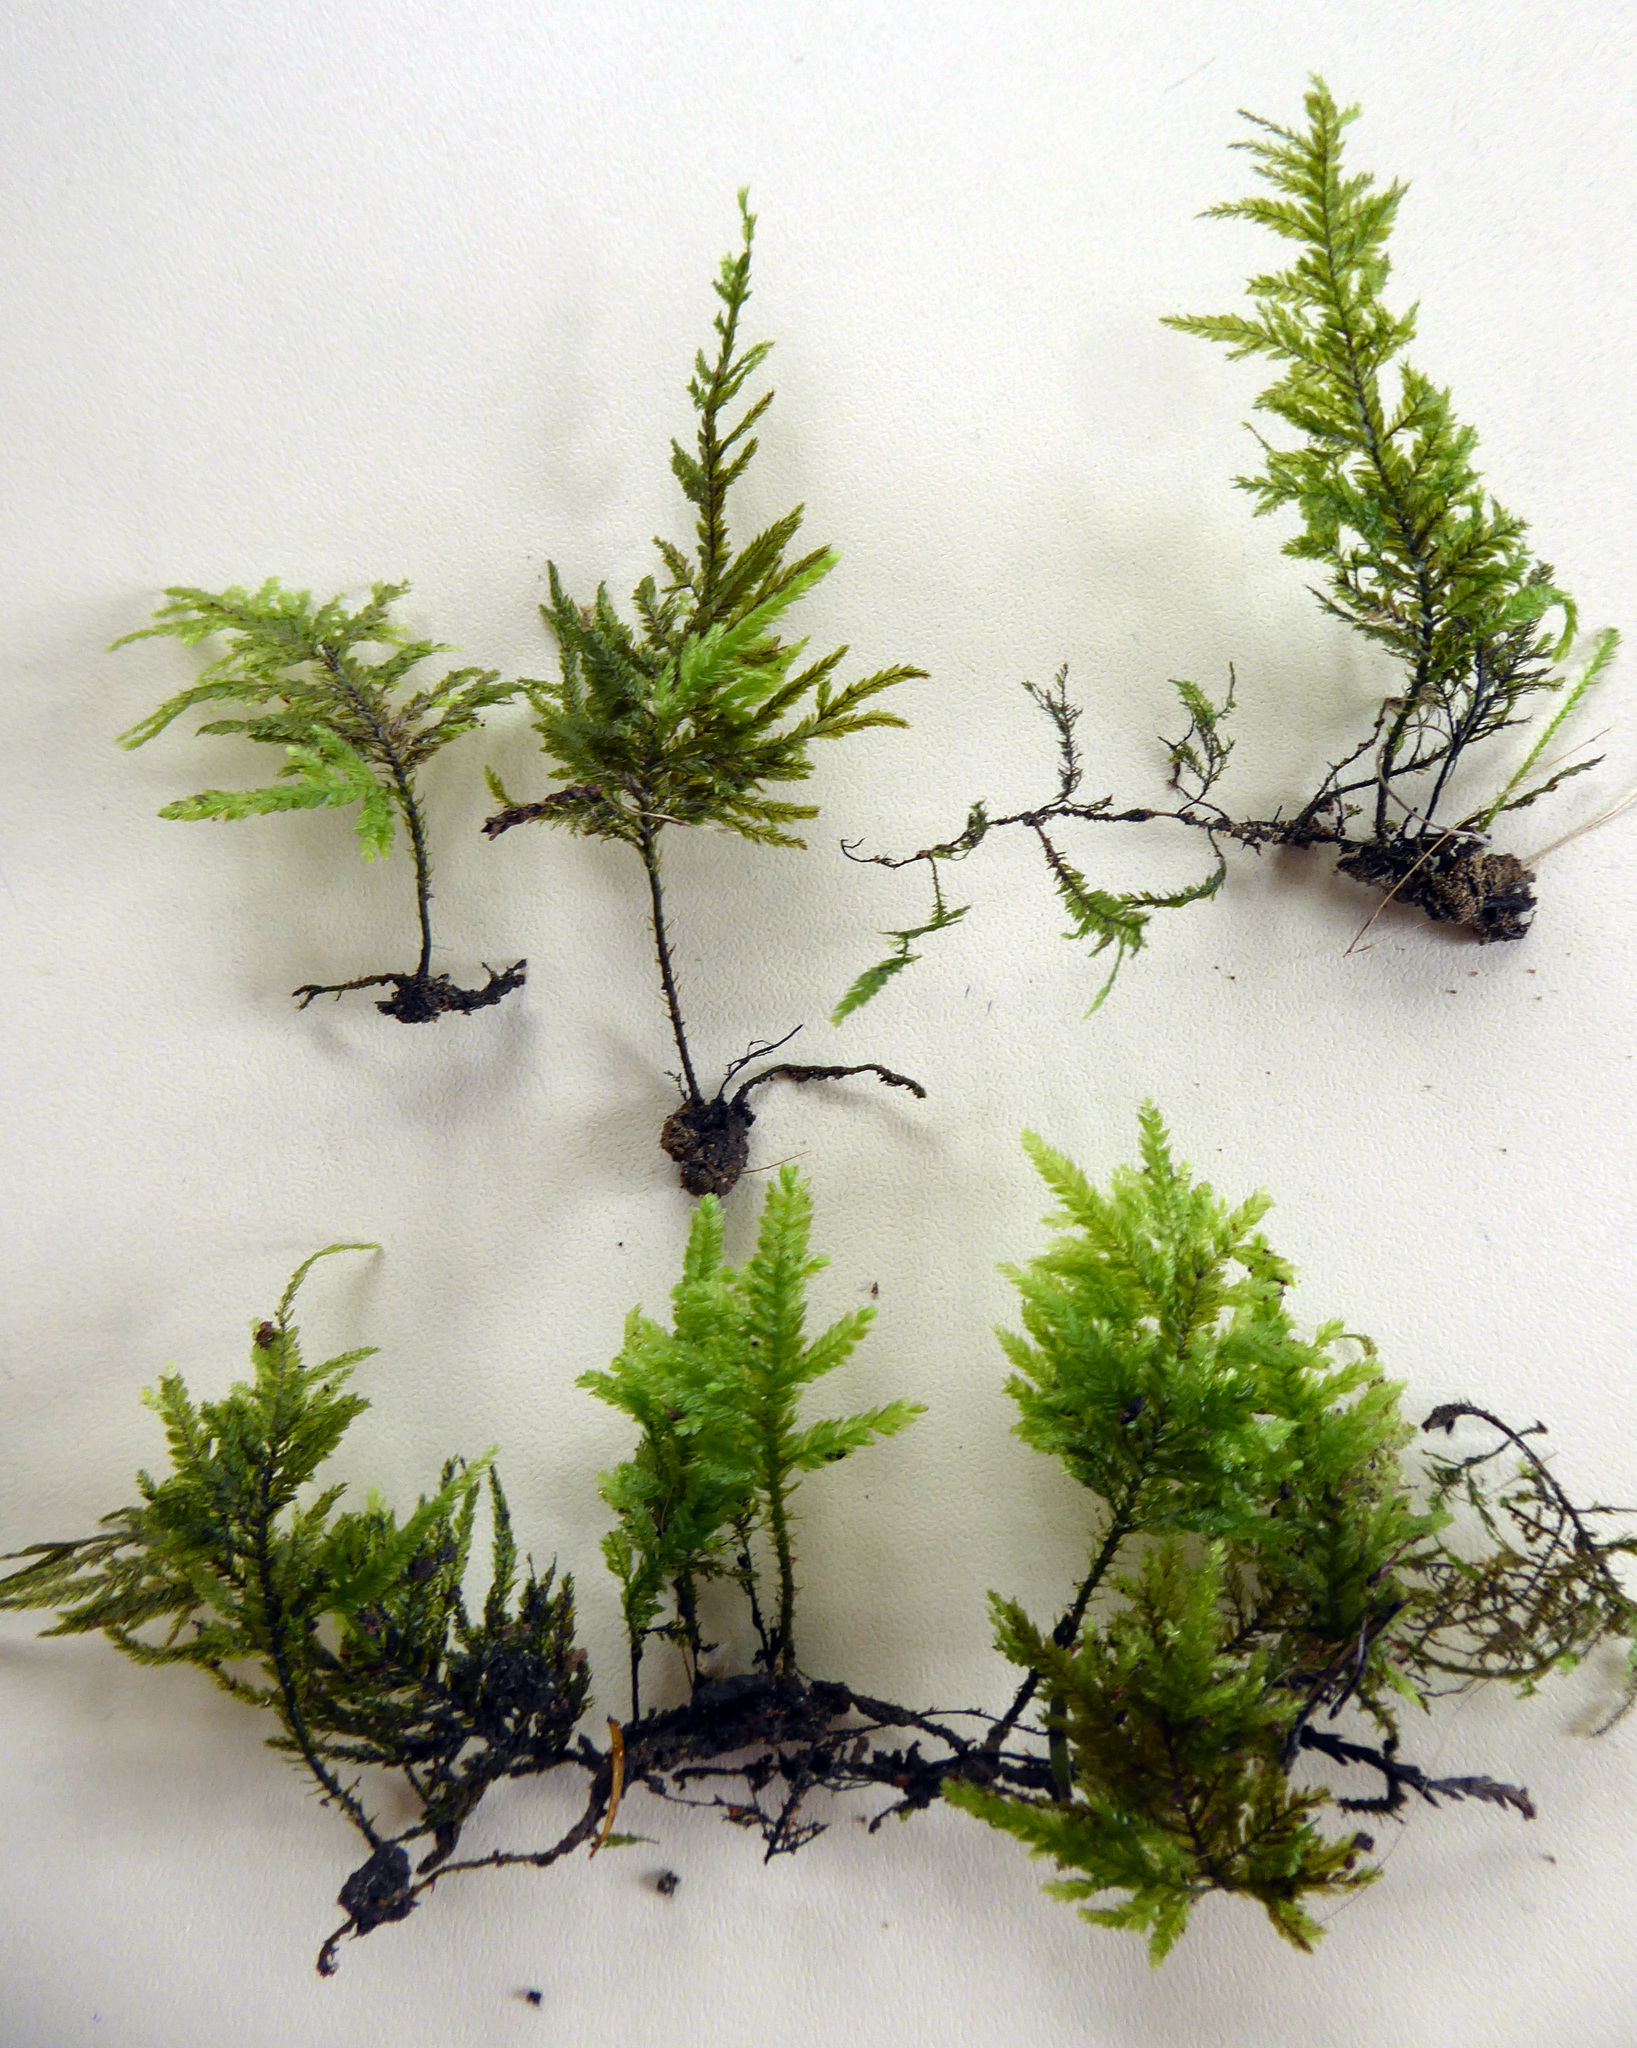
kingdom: Plantae
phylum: Bryophyta
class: Bryopsida
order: Hypnales
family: Neckeraceae
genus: Austrothamnium
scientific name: Austrothamnium pandum
